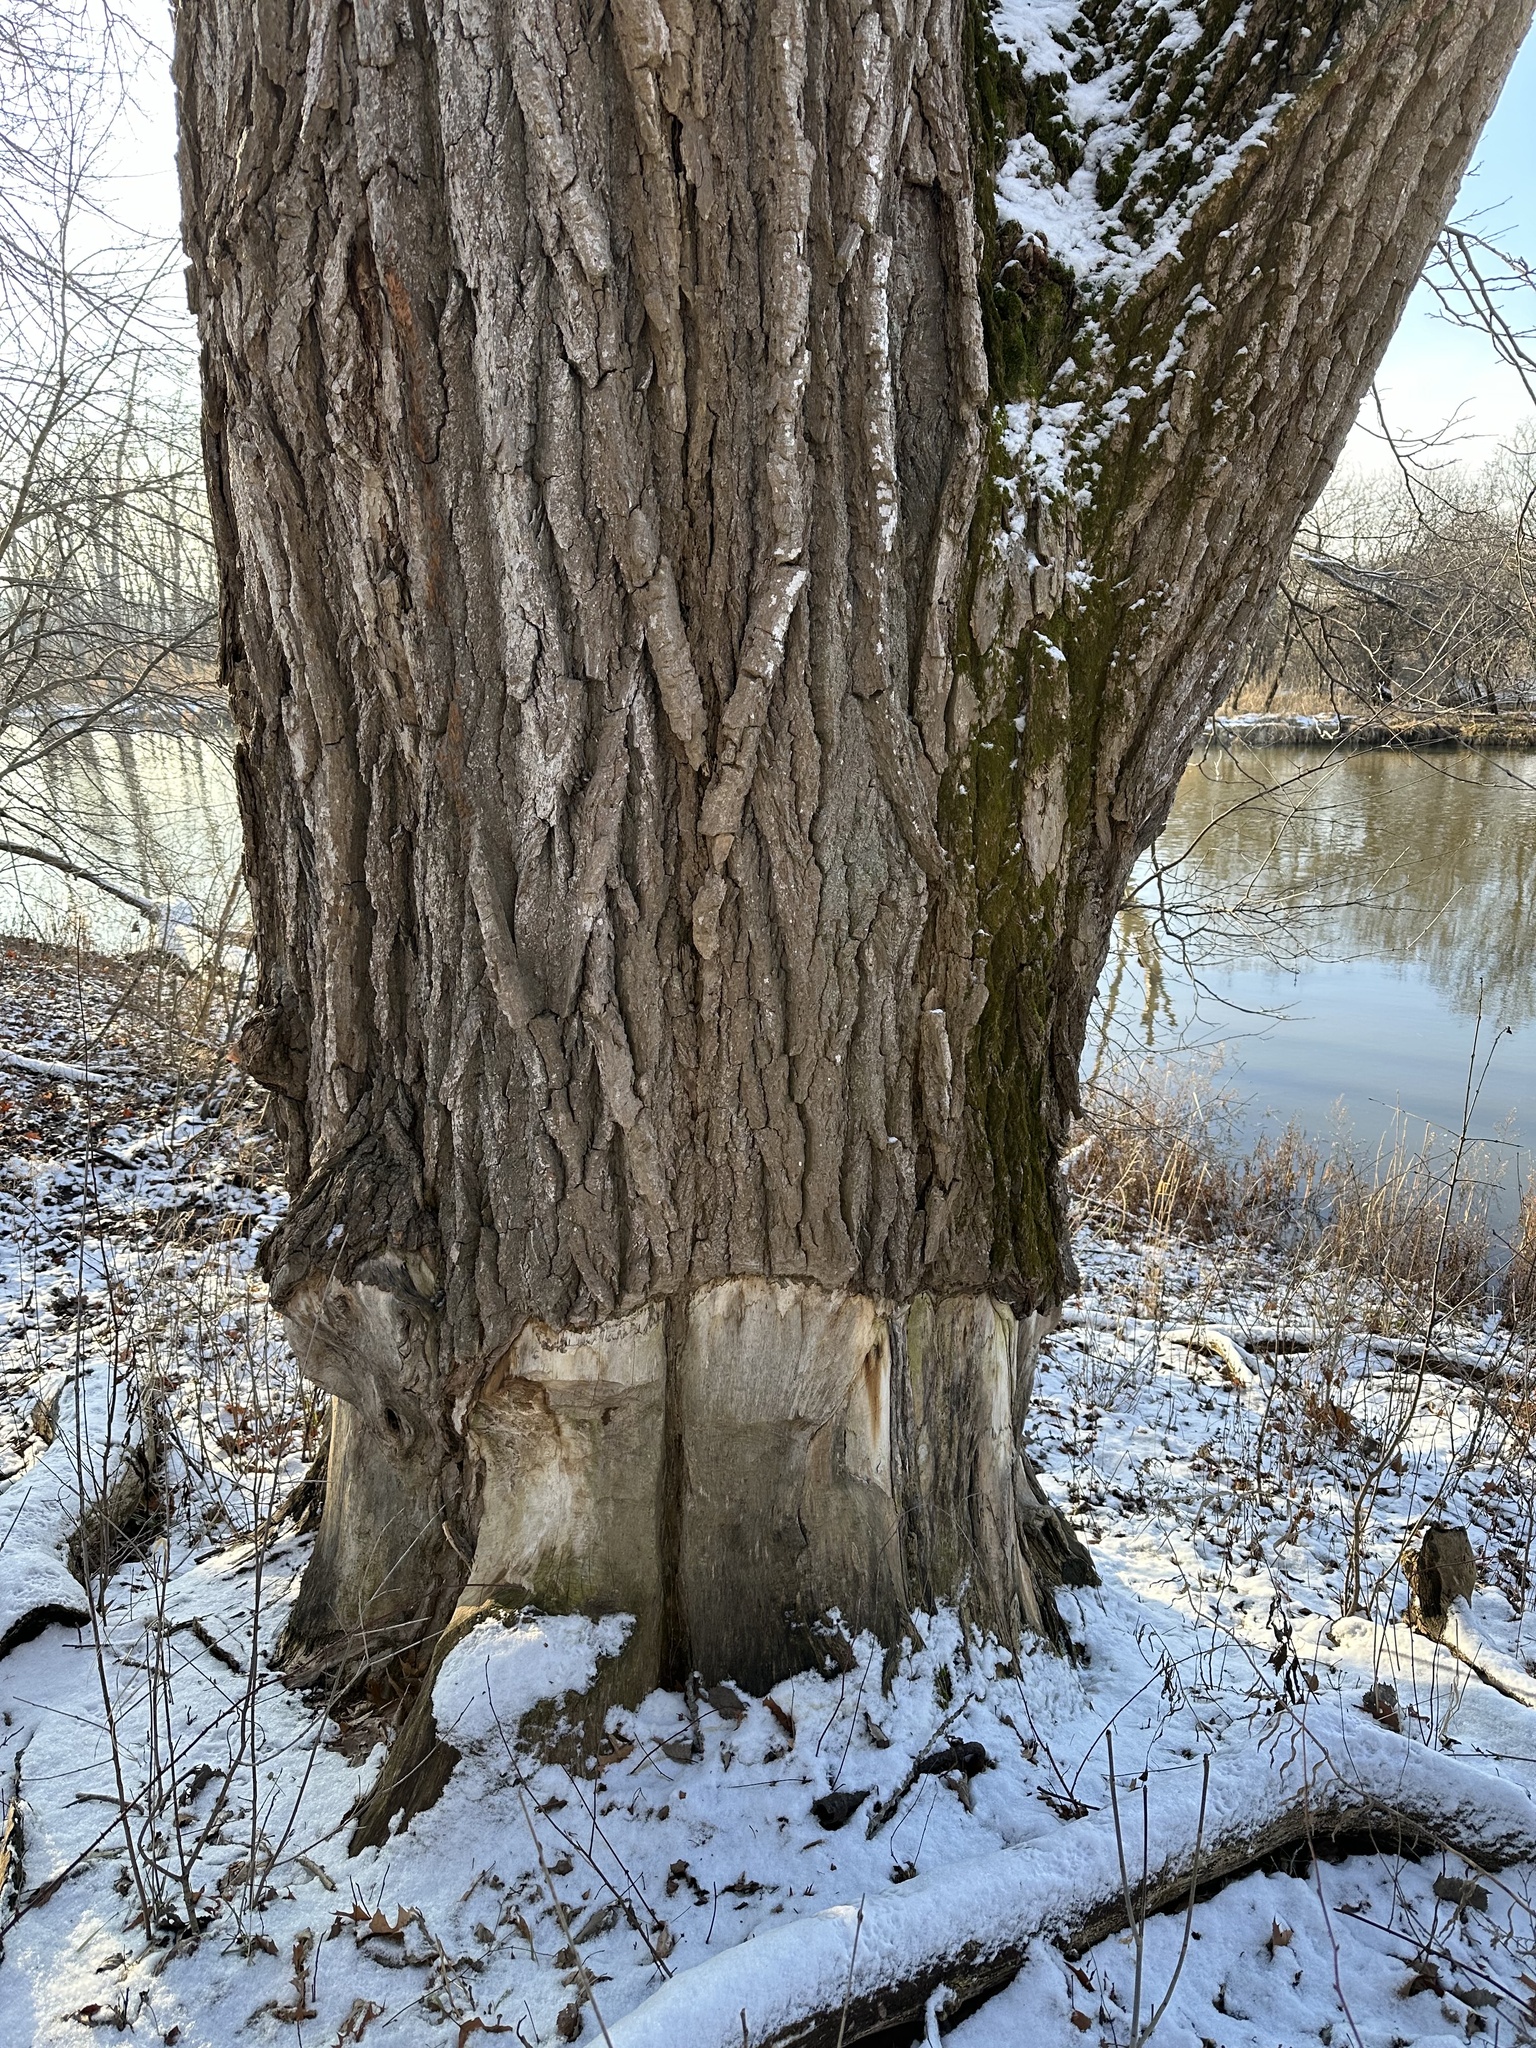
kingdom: Plantae
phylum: Tracheophyta
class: Magnoliopsida
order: Malpighiales
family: Salicaceae
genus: Populus
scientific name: Populus deltoides
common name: Eastern cottonwood
